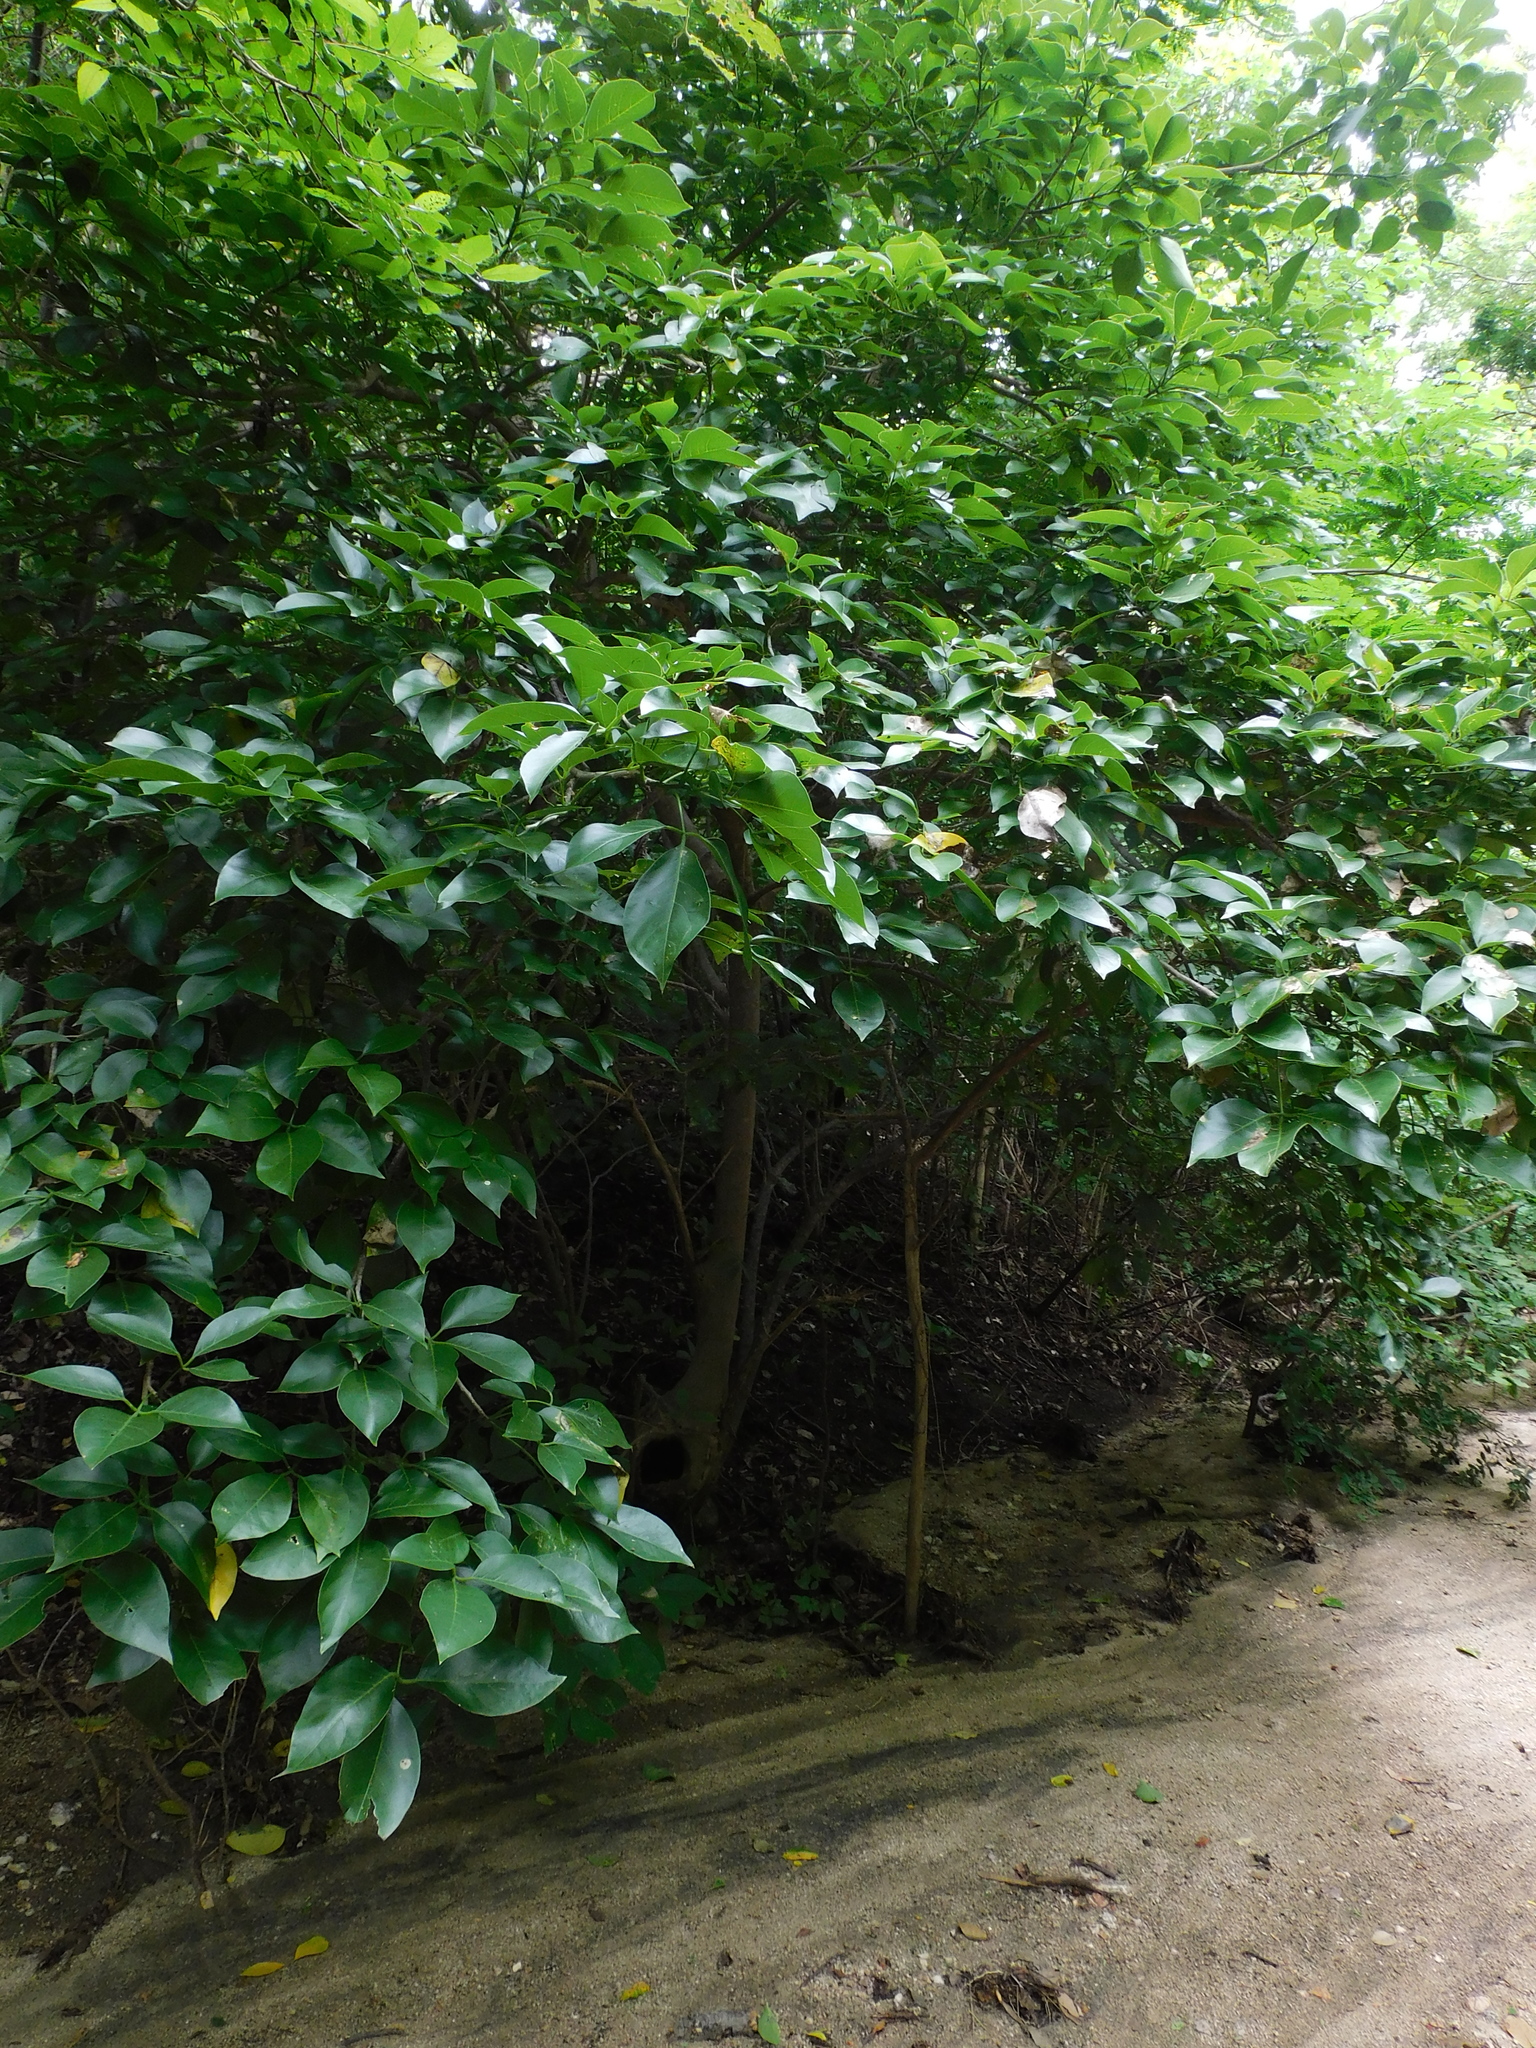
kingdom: Plantae
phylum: Tracheophyta
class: Magnoliopsida
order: Brassicales
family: Capparaceae
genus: Crateva
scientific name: Crateva tapia
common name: Garlic-pear
